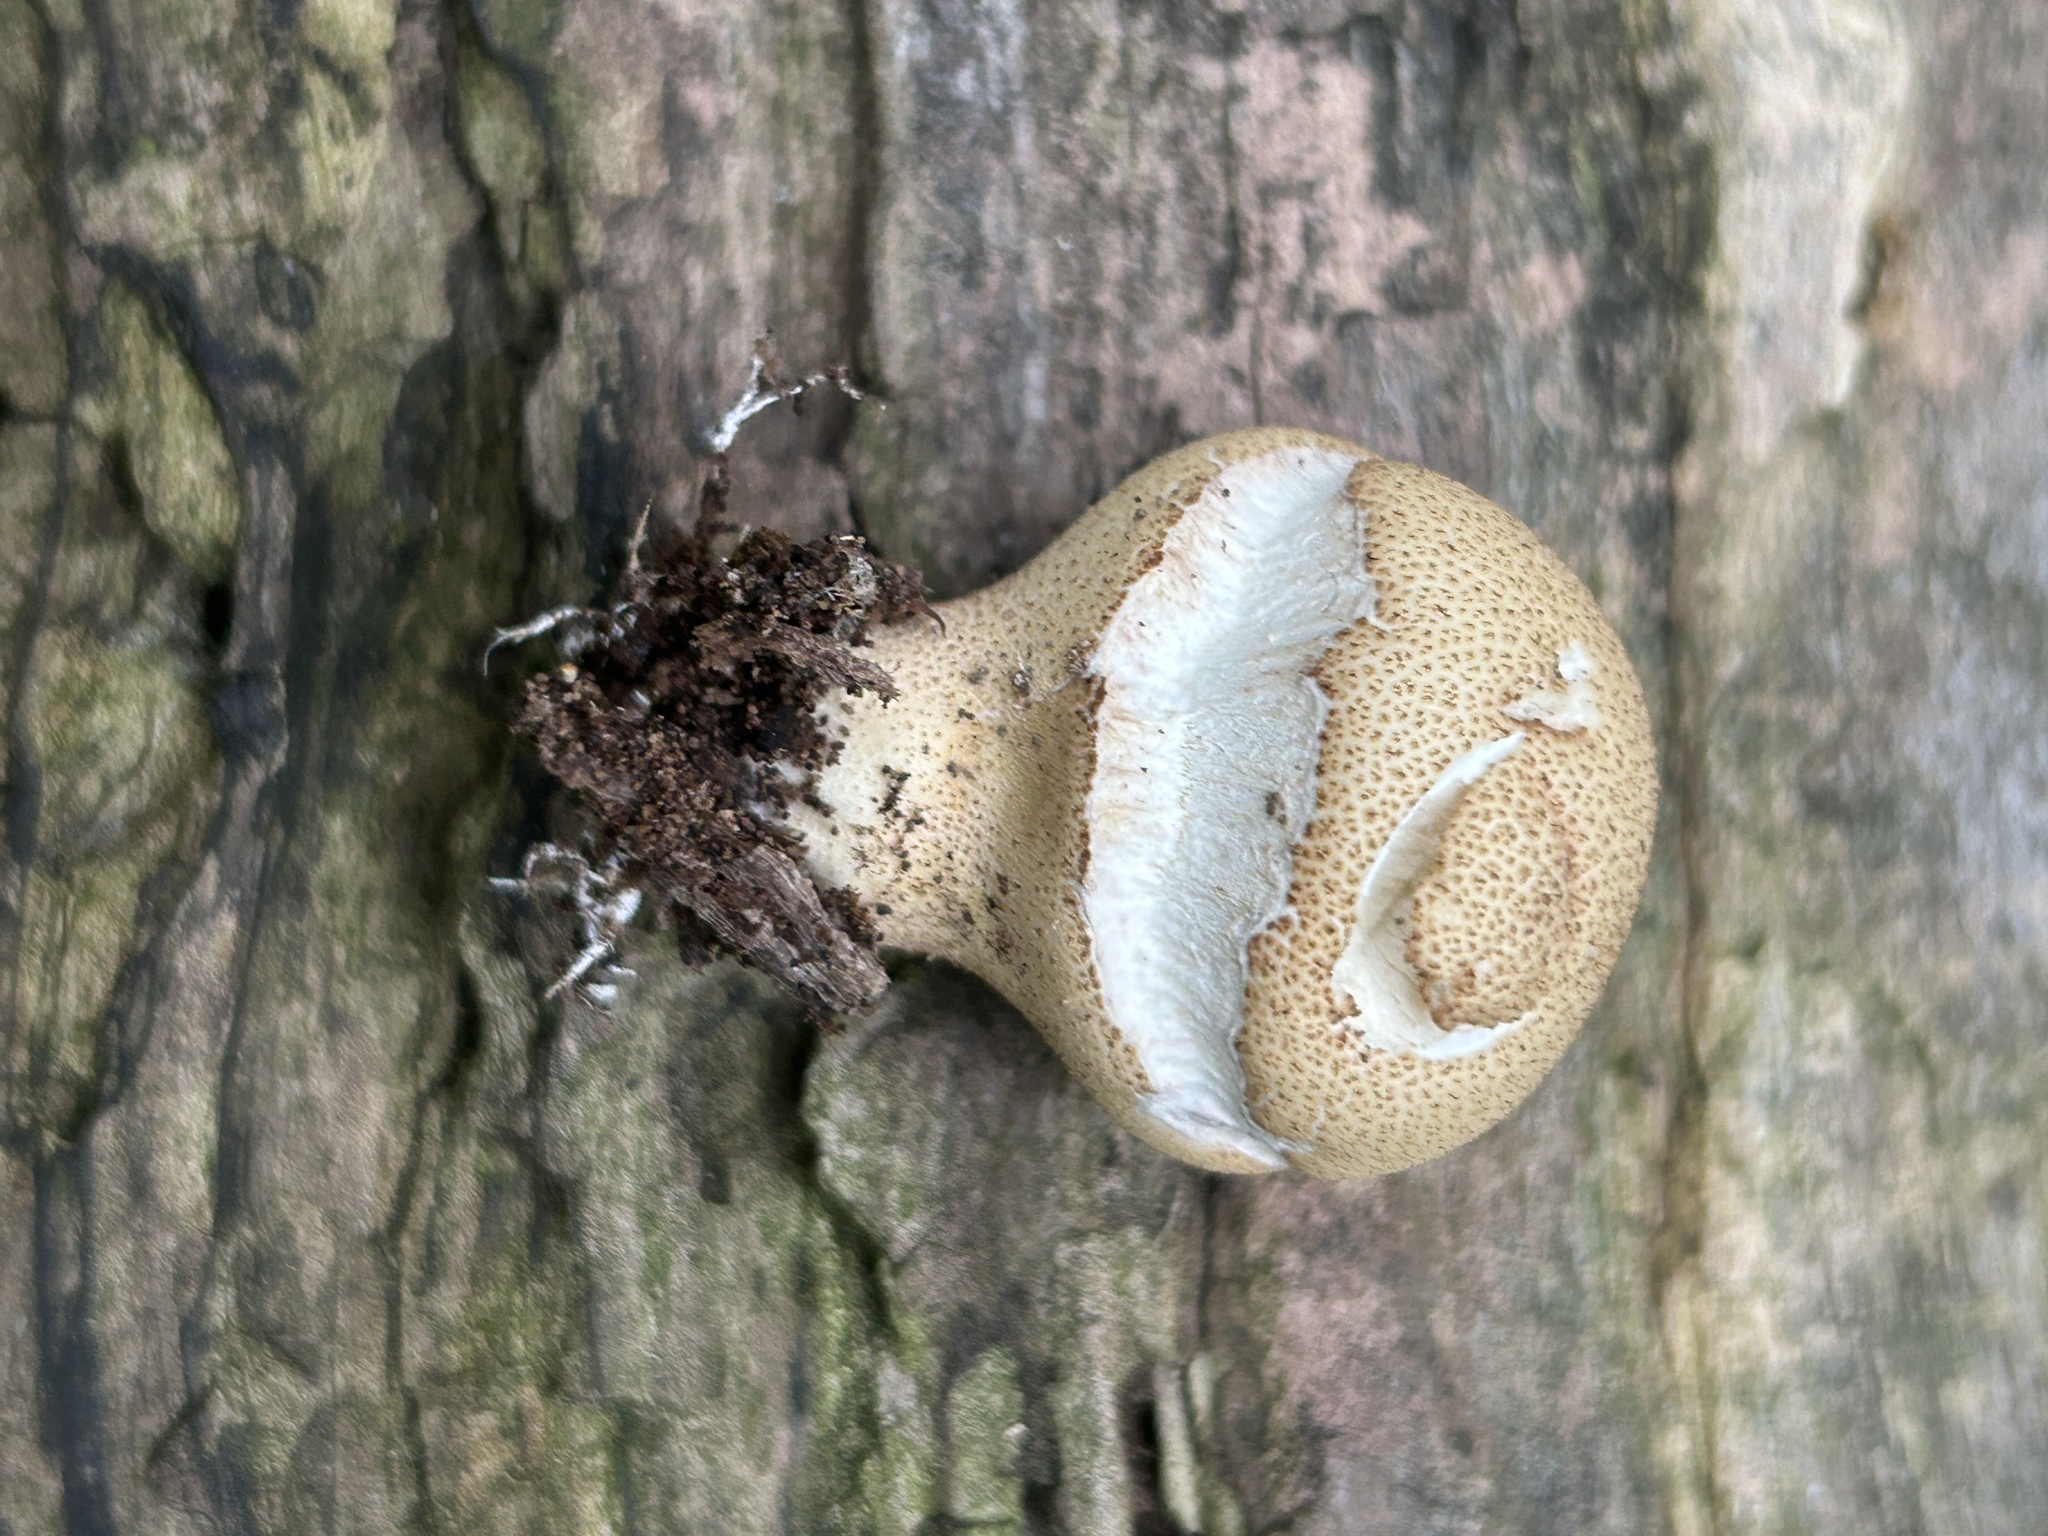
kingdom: Fungi
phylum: Basidiomycota
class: Agaricomycetes
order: Agaricales
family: Lycoperdaceae
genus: Apioperdon
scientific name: Apioperdon pyriforme
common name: Pear-shaped puffball
